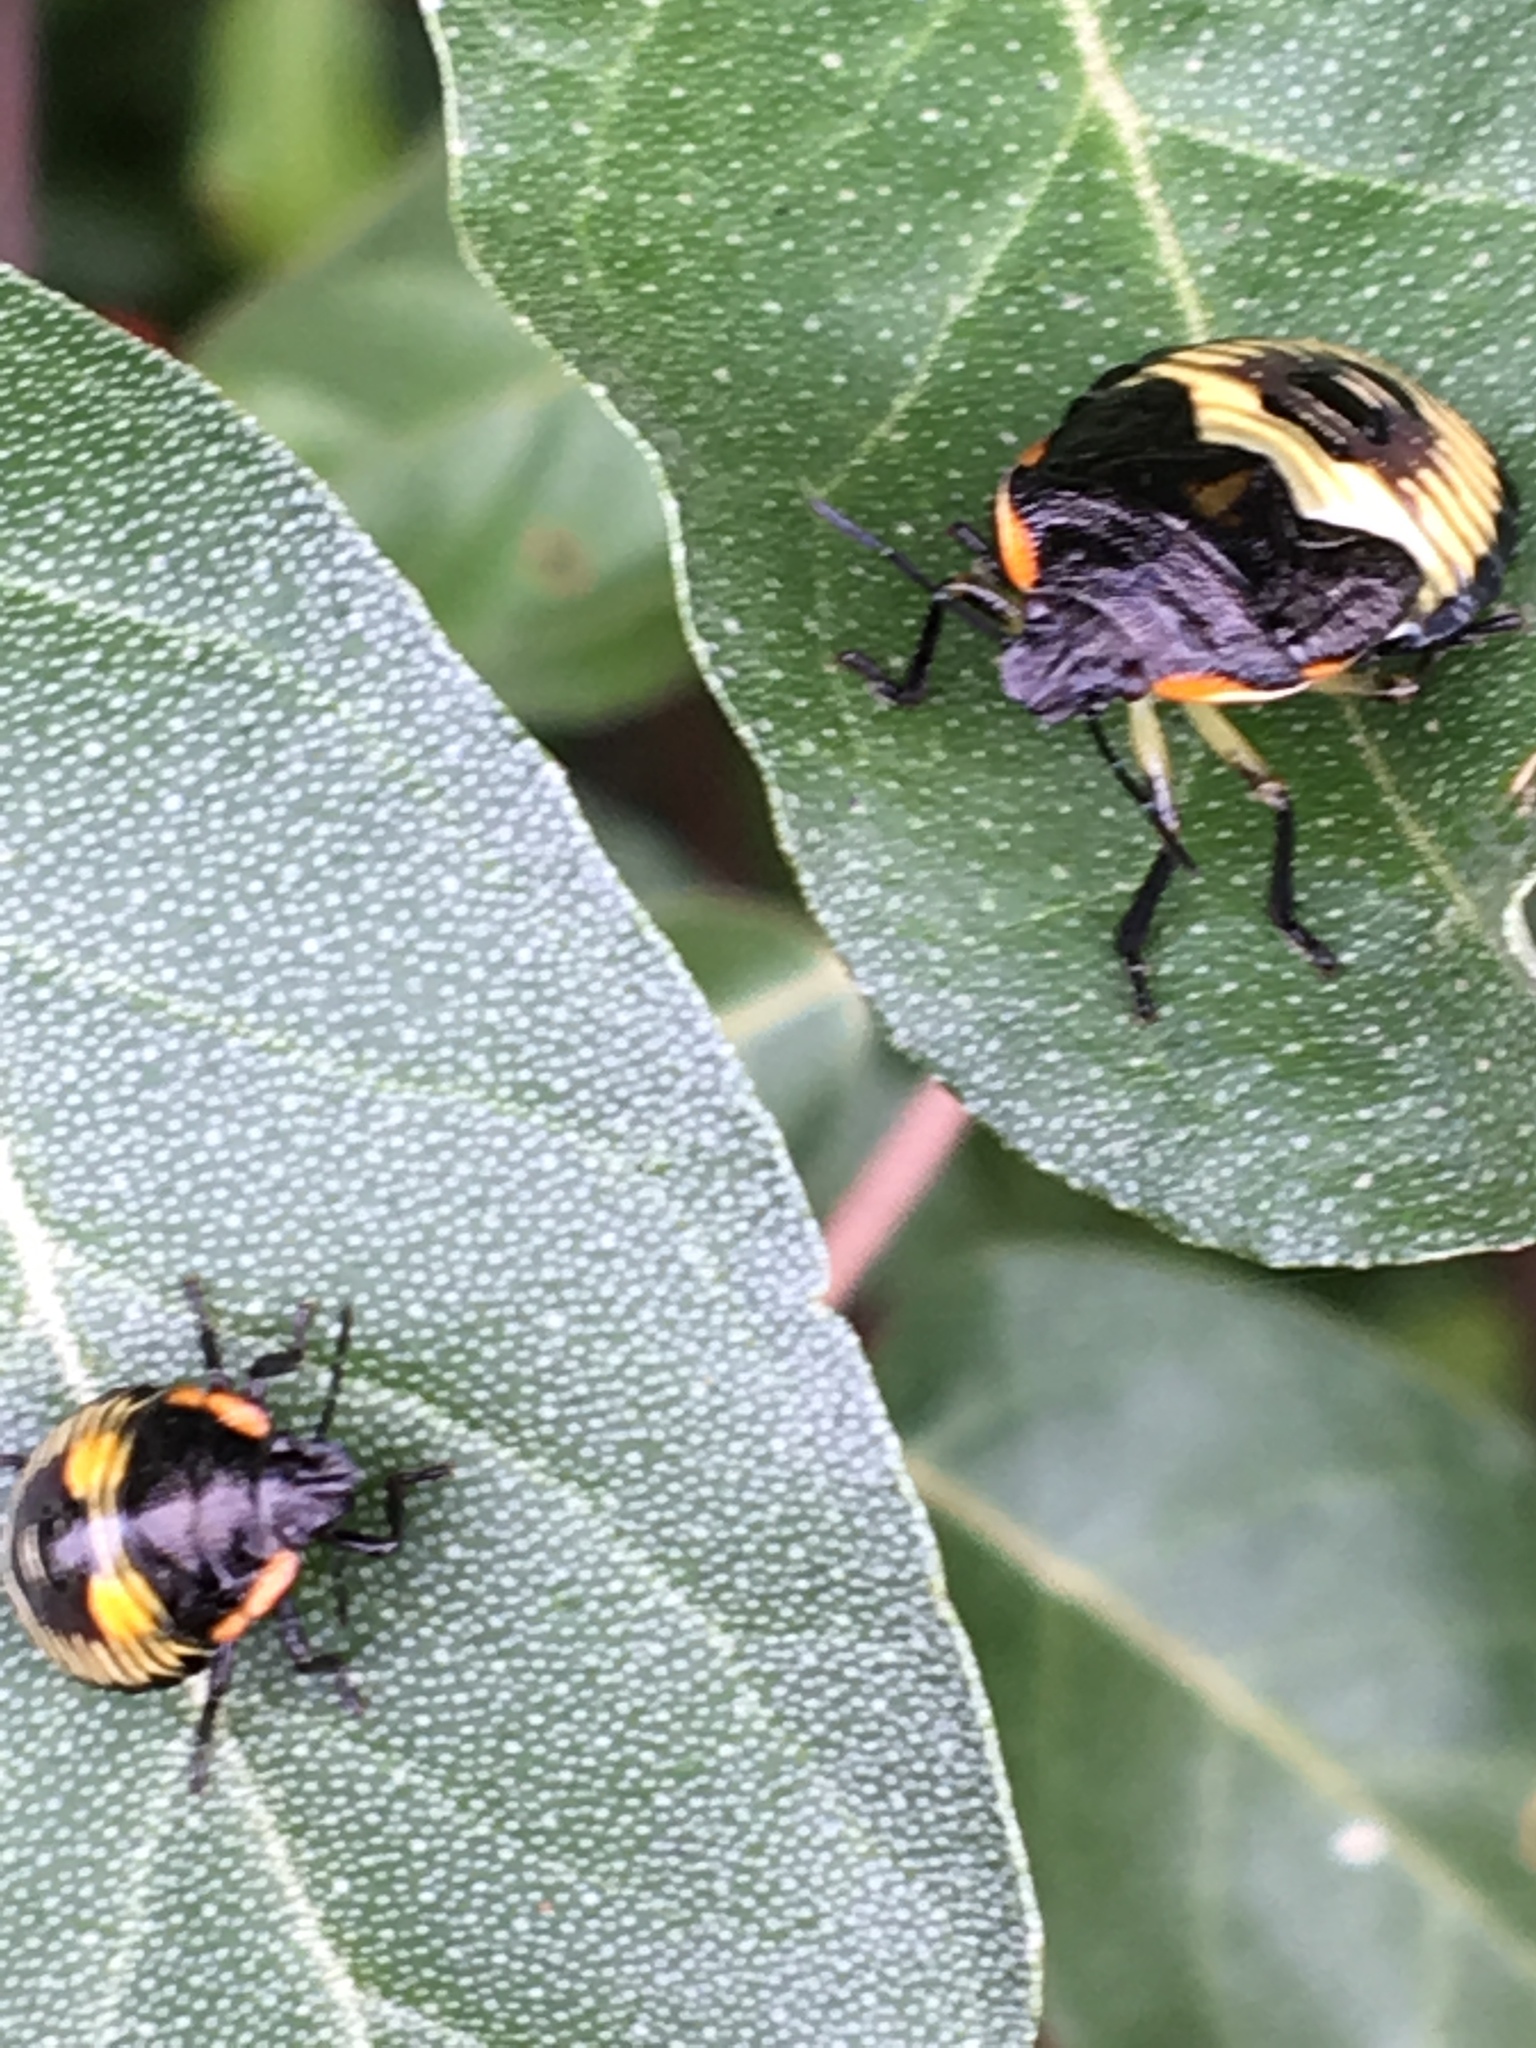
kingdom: Animalia
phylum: Arthropoda
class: Insecta
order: Hemiptera
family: Pentatomidae
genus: Chinavia
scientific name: Chinavia hilaris
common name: Green stink bug
